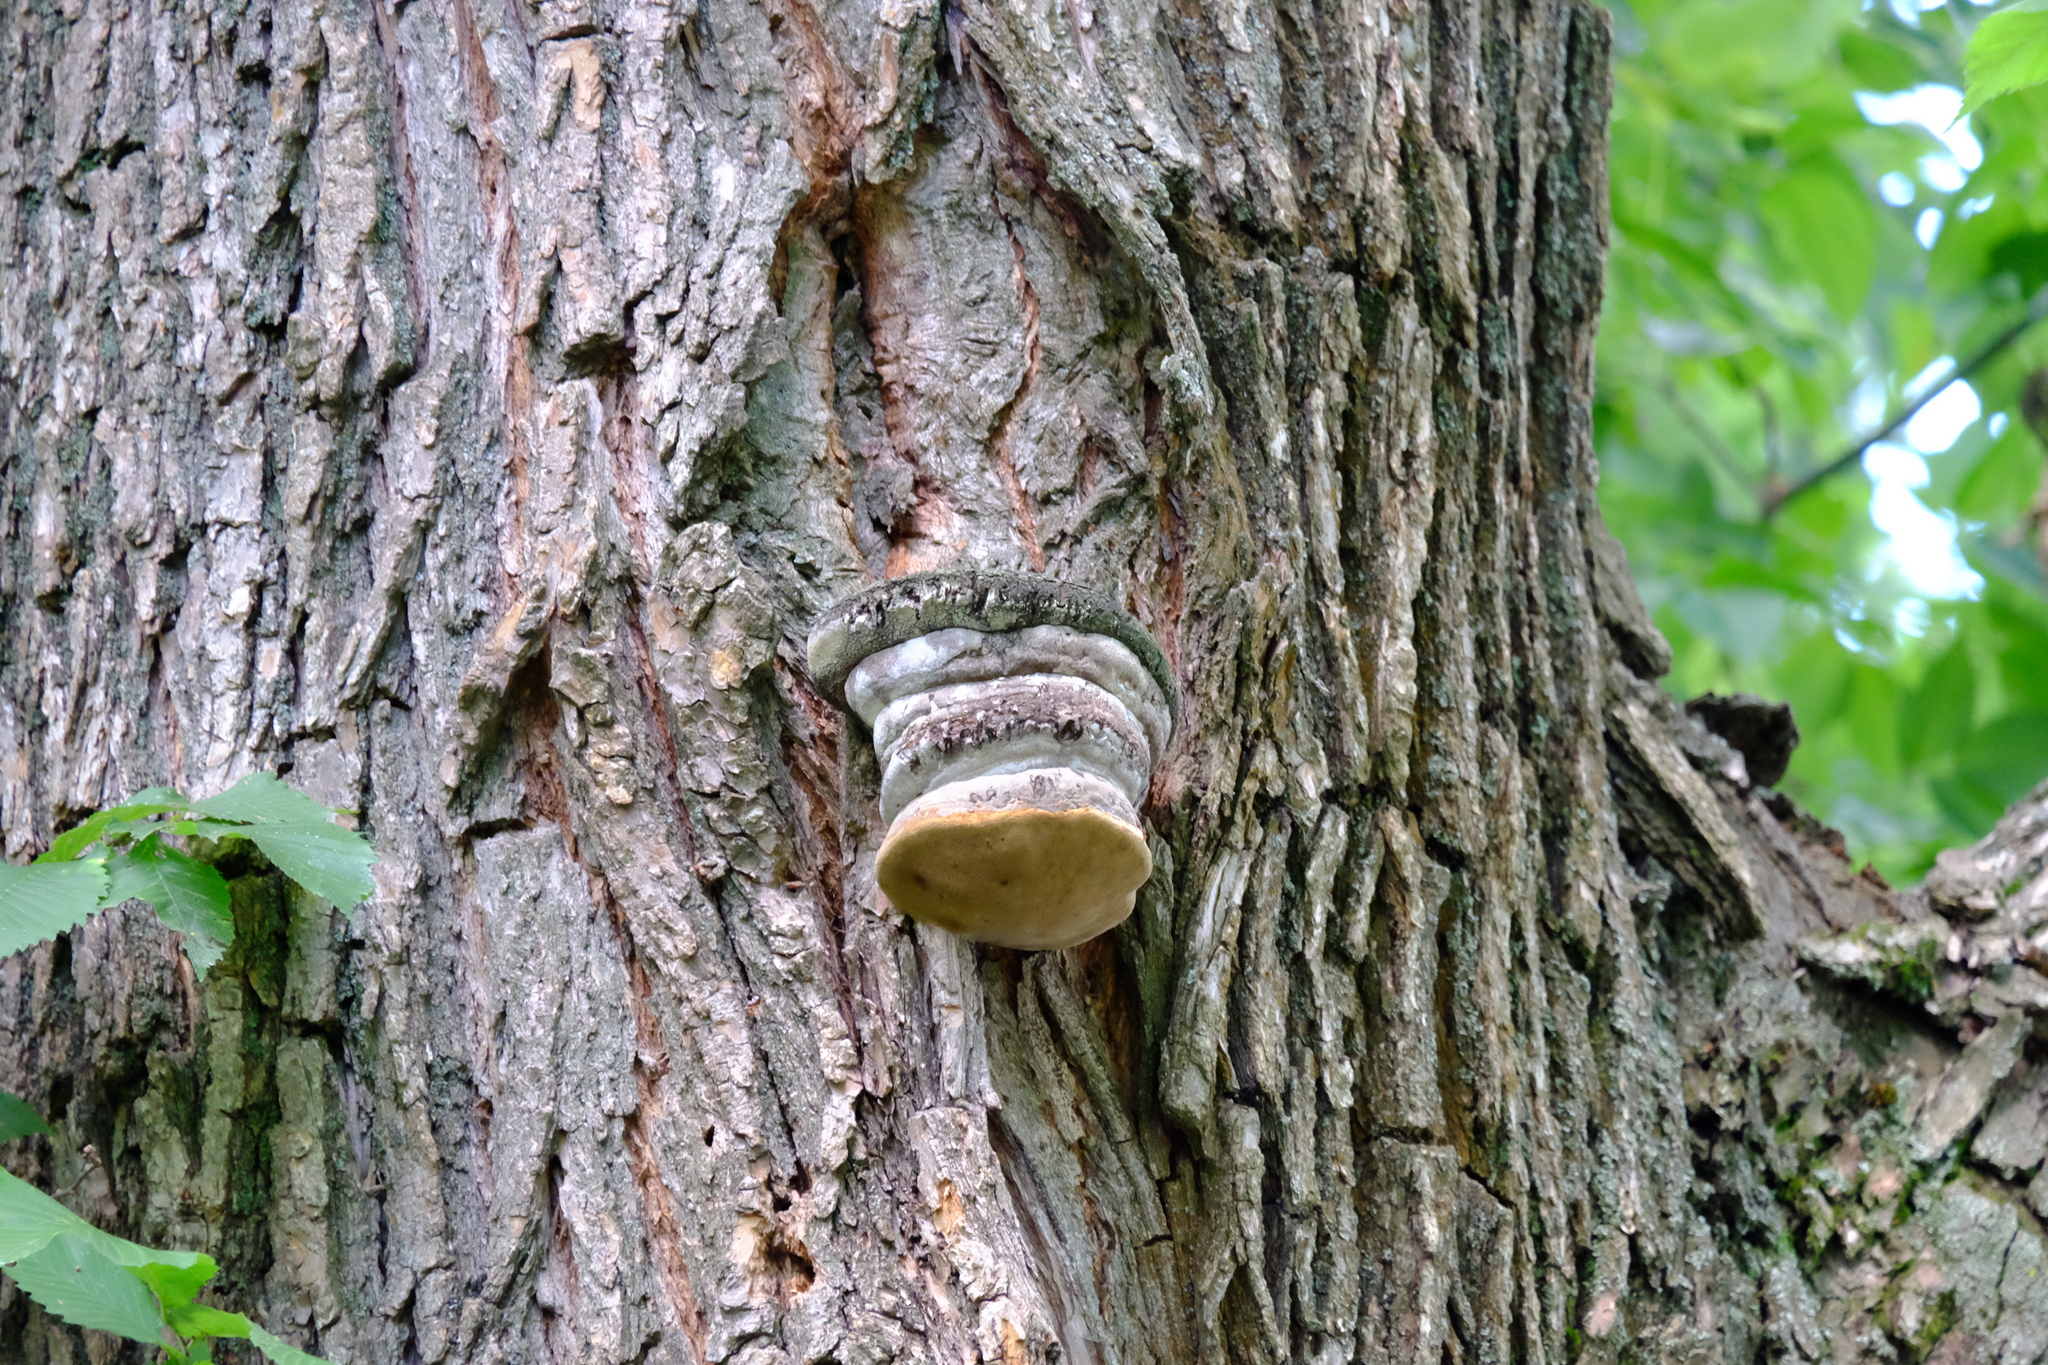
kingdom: Fungi
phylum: Basidiomycota
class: Agaricomycetes
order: Hymenochaetales
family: Hymenochaetaceae
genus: Phellinus
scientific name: Phellinus igniarius
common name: Willow bracket
